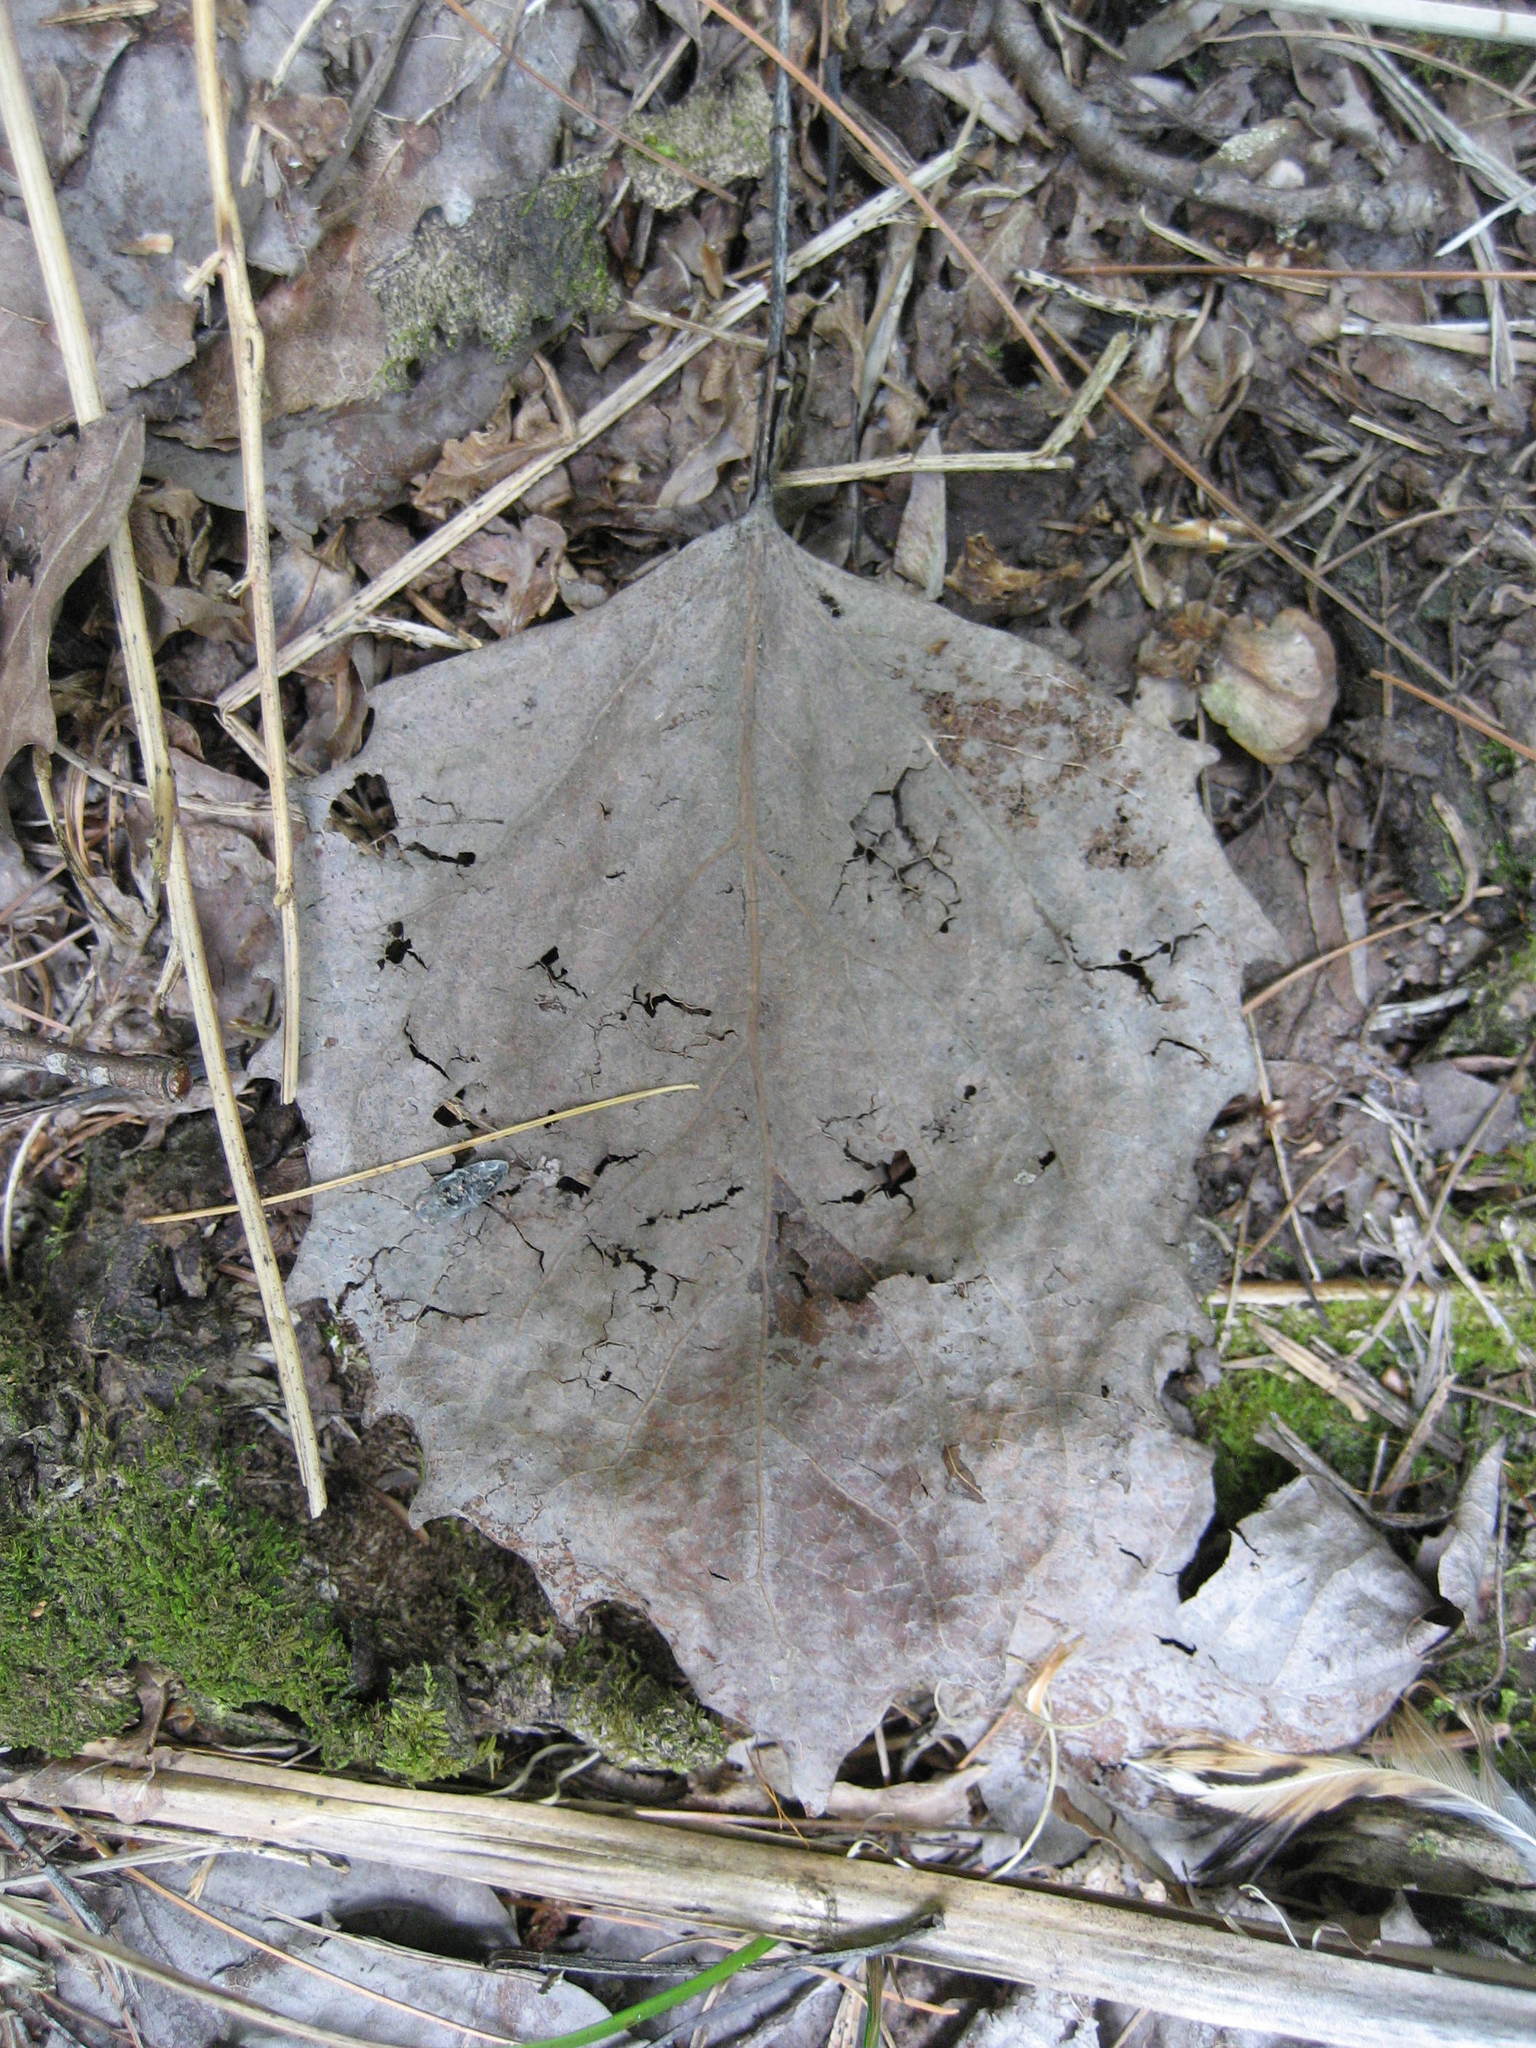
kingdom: Plantae
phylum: Tracheophyta
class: Magnoliopsida
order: Malpighiales
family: Salicaceae
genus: Populus
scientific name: Populus grandidentata
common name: Bigtooth aspen
